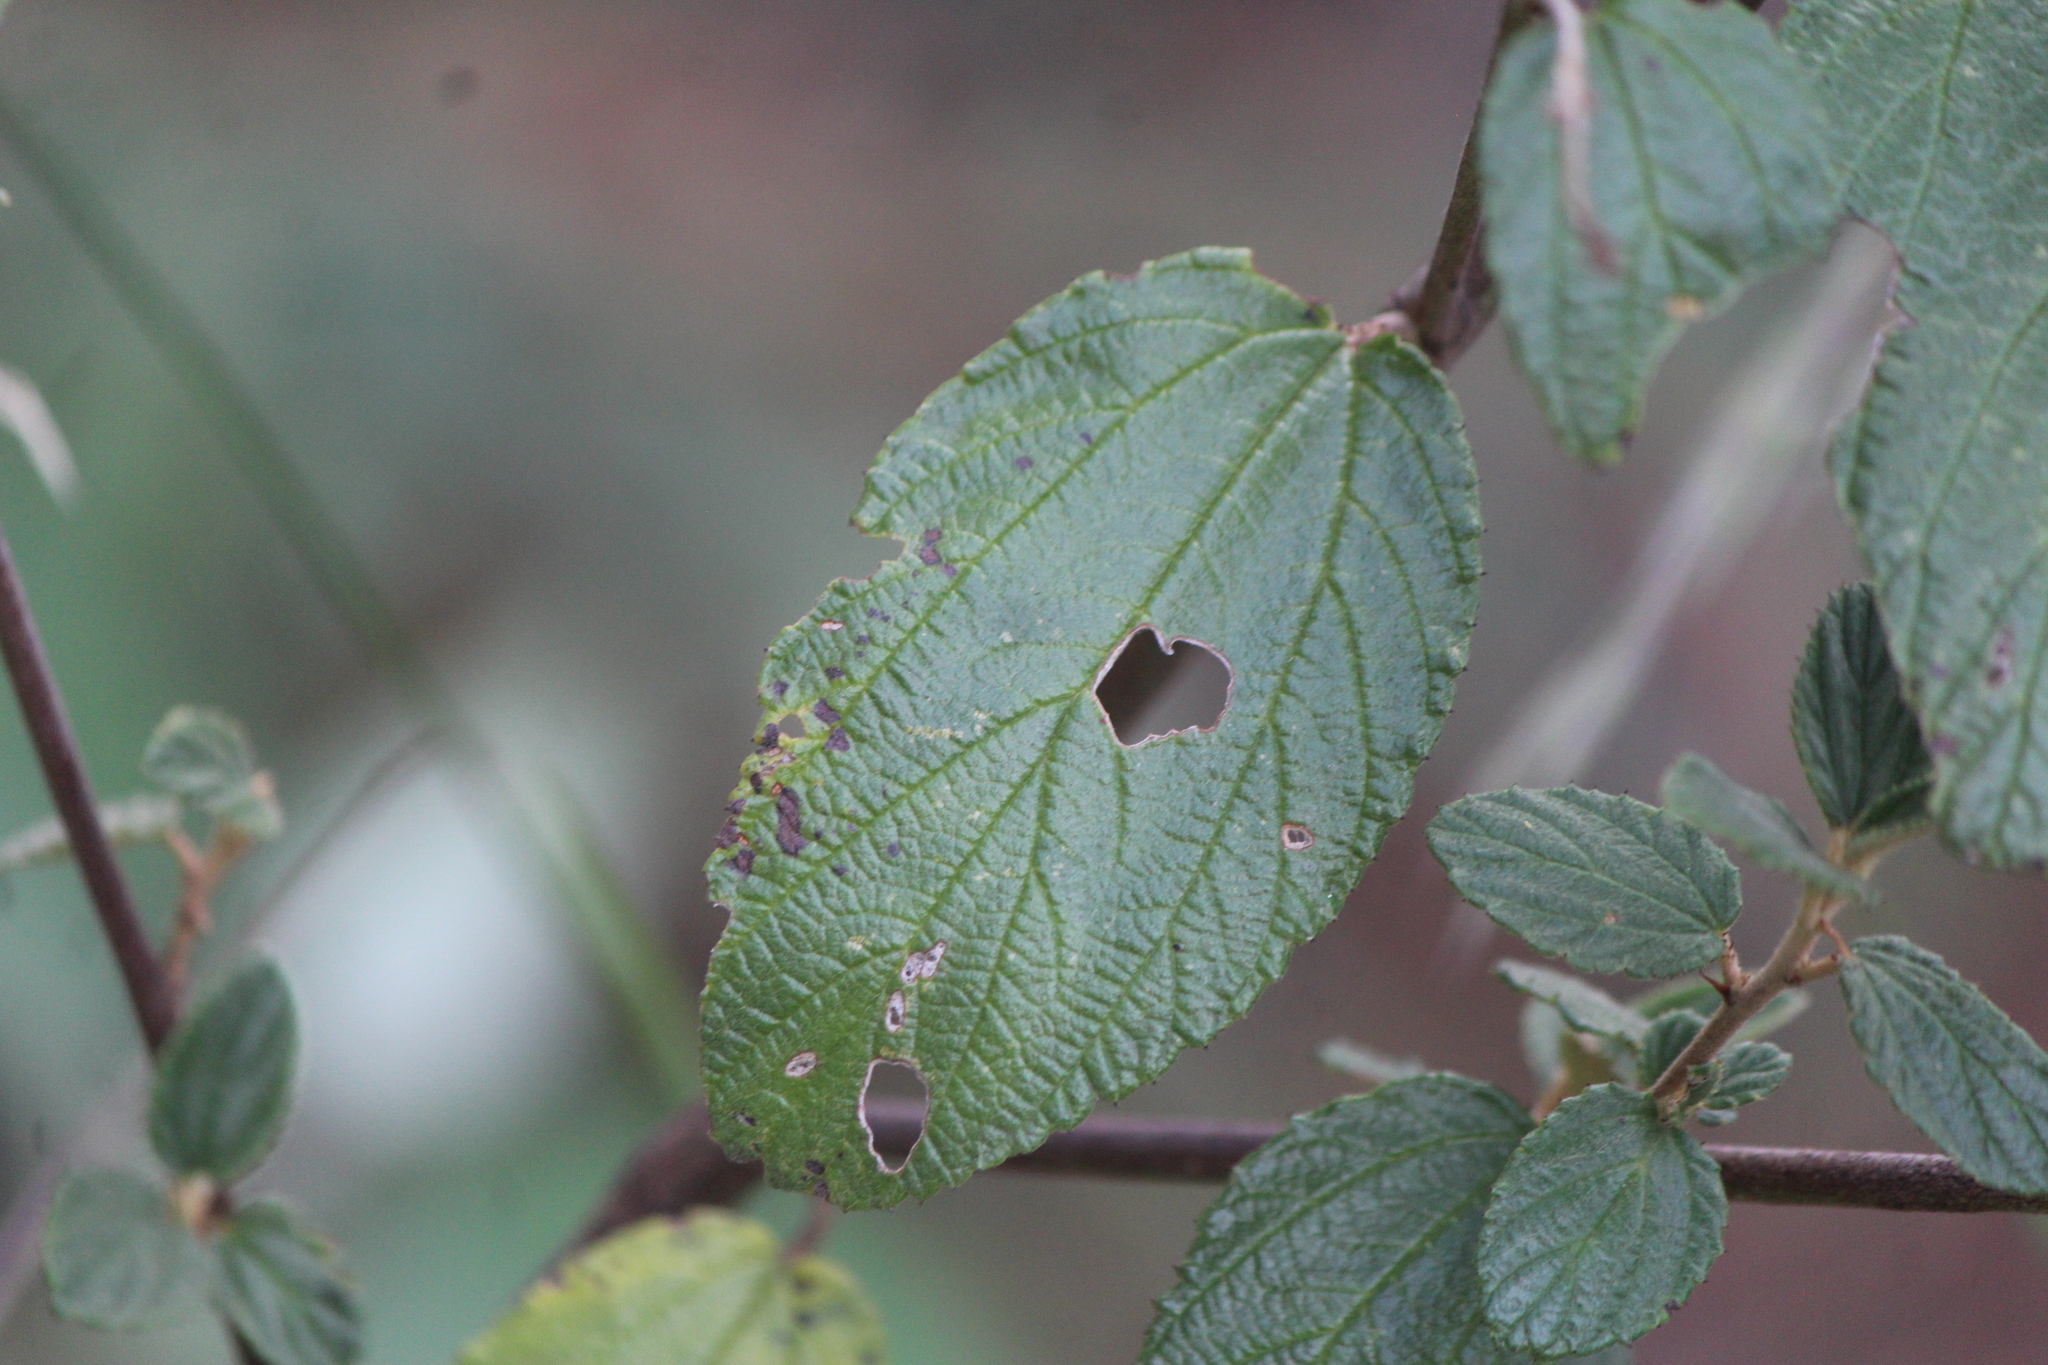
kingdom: Plantae
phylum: Tracheophyta
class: Magnoliopsida
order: Rosales
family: Rhamnaceae
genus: Ceanothus
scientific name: Ceanothus caeruleus
